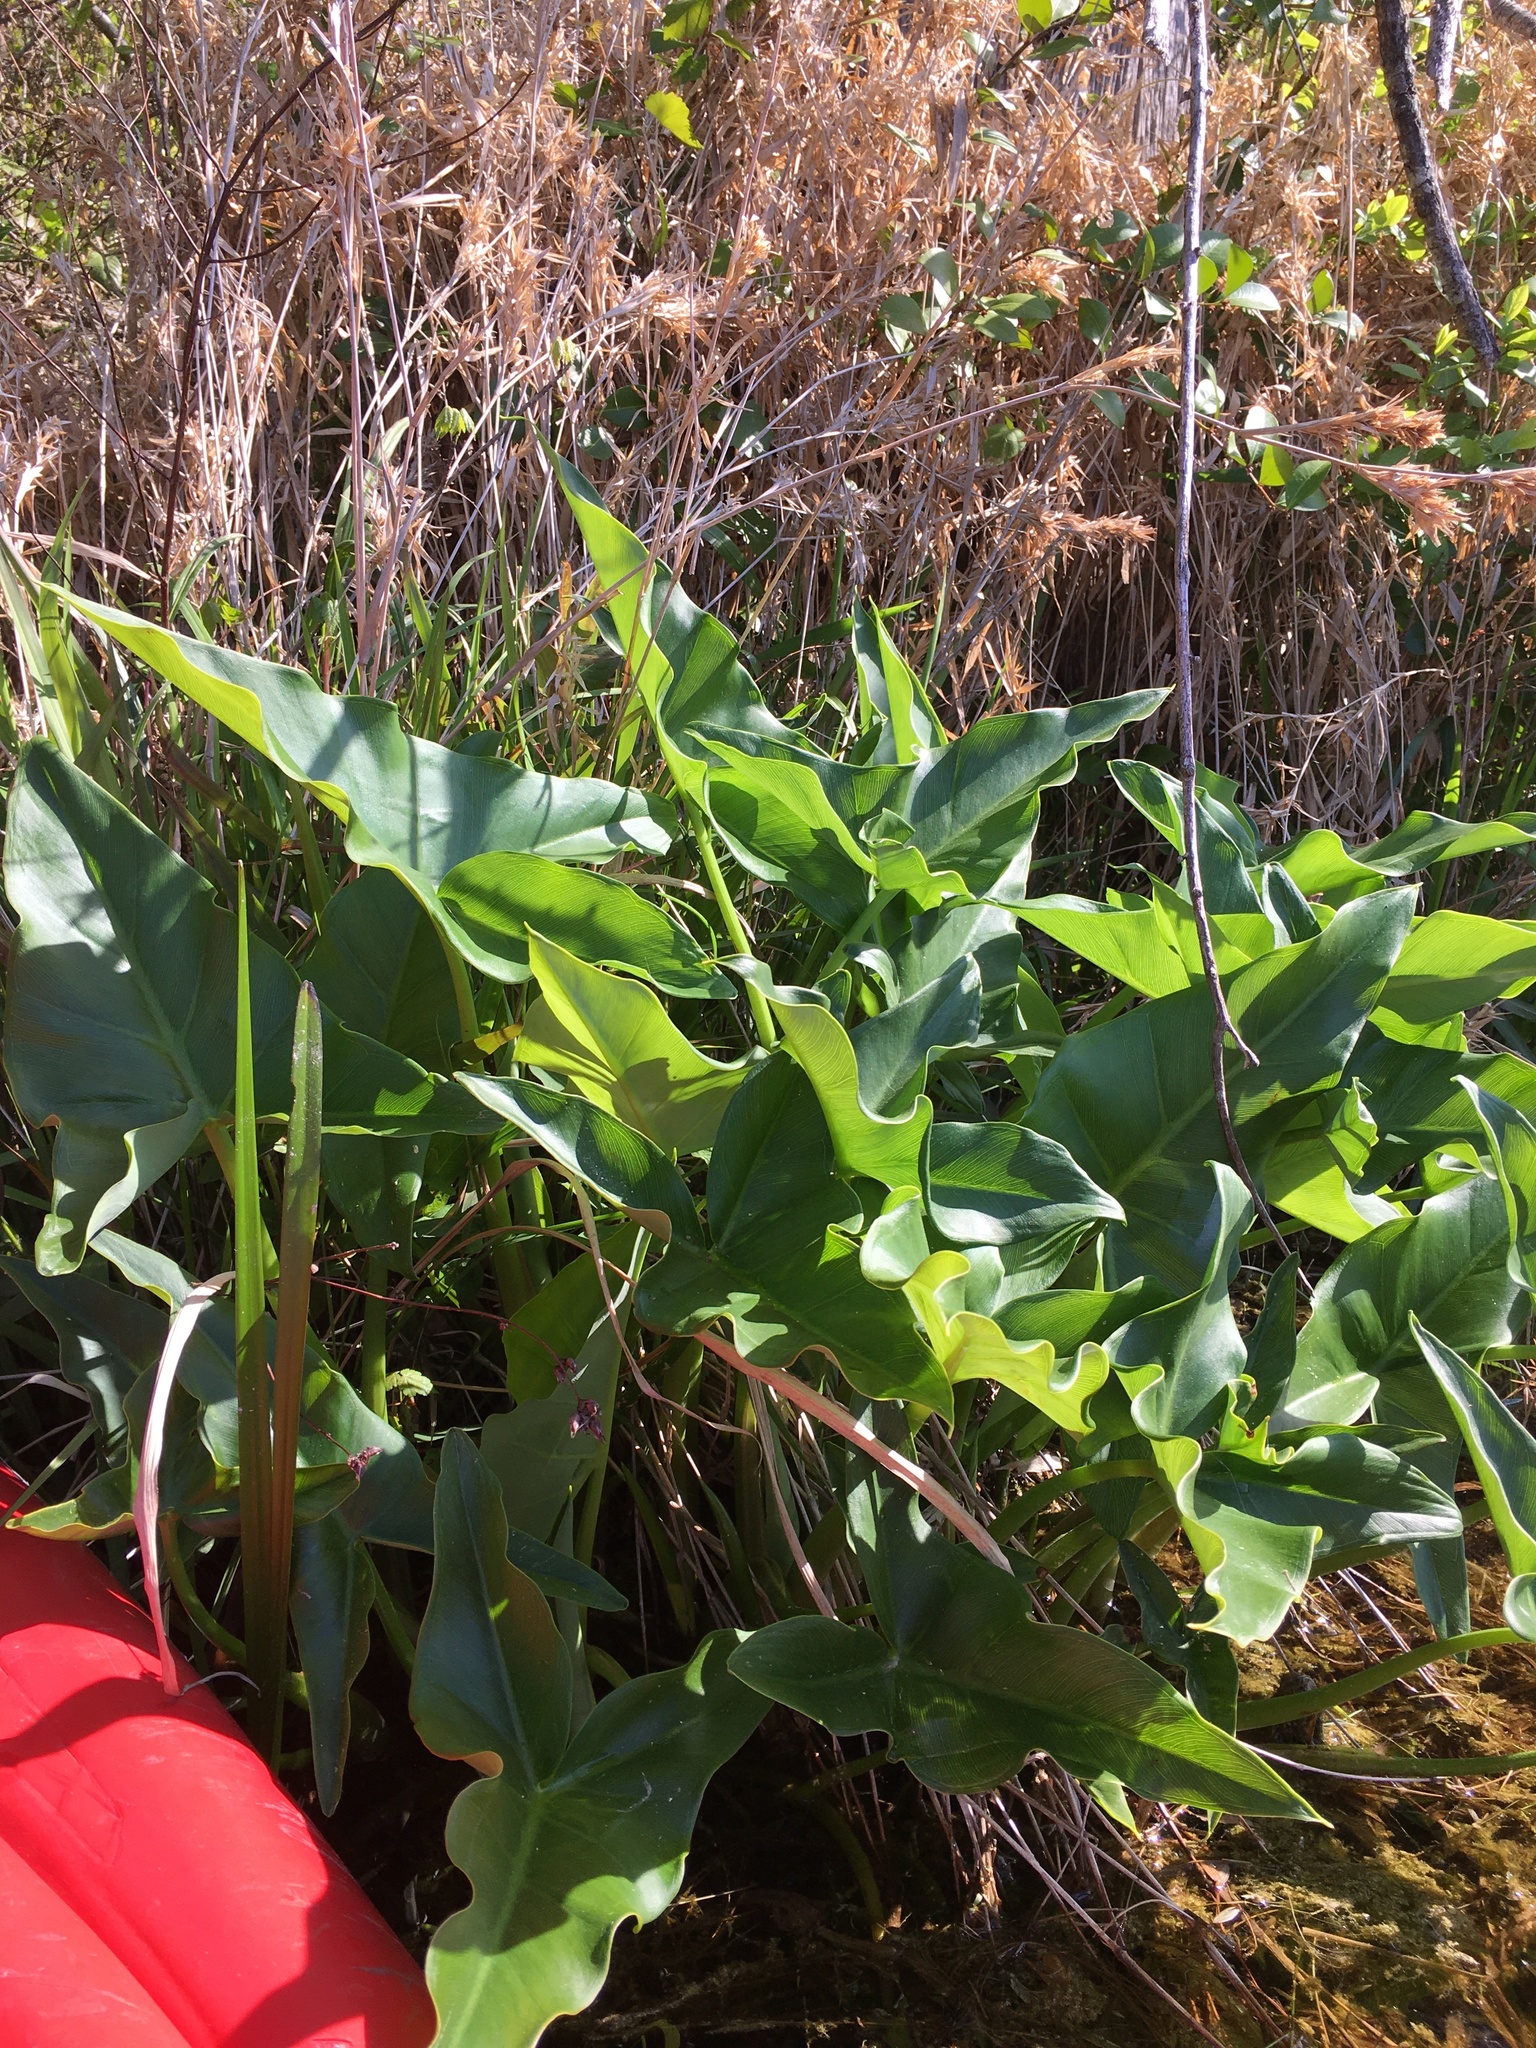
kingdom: Plantae
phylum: Tracheophyta
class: Liliopsida
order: Alismatales
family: Araceae
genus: Peltandra
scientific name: Peltandra virginica
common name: Arrow arum
